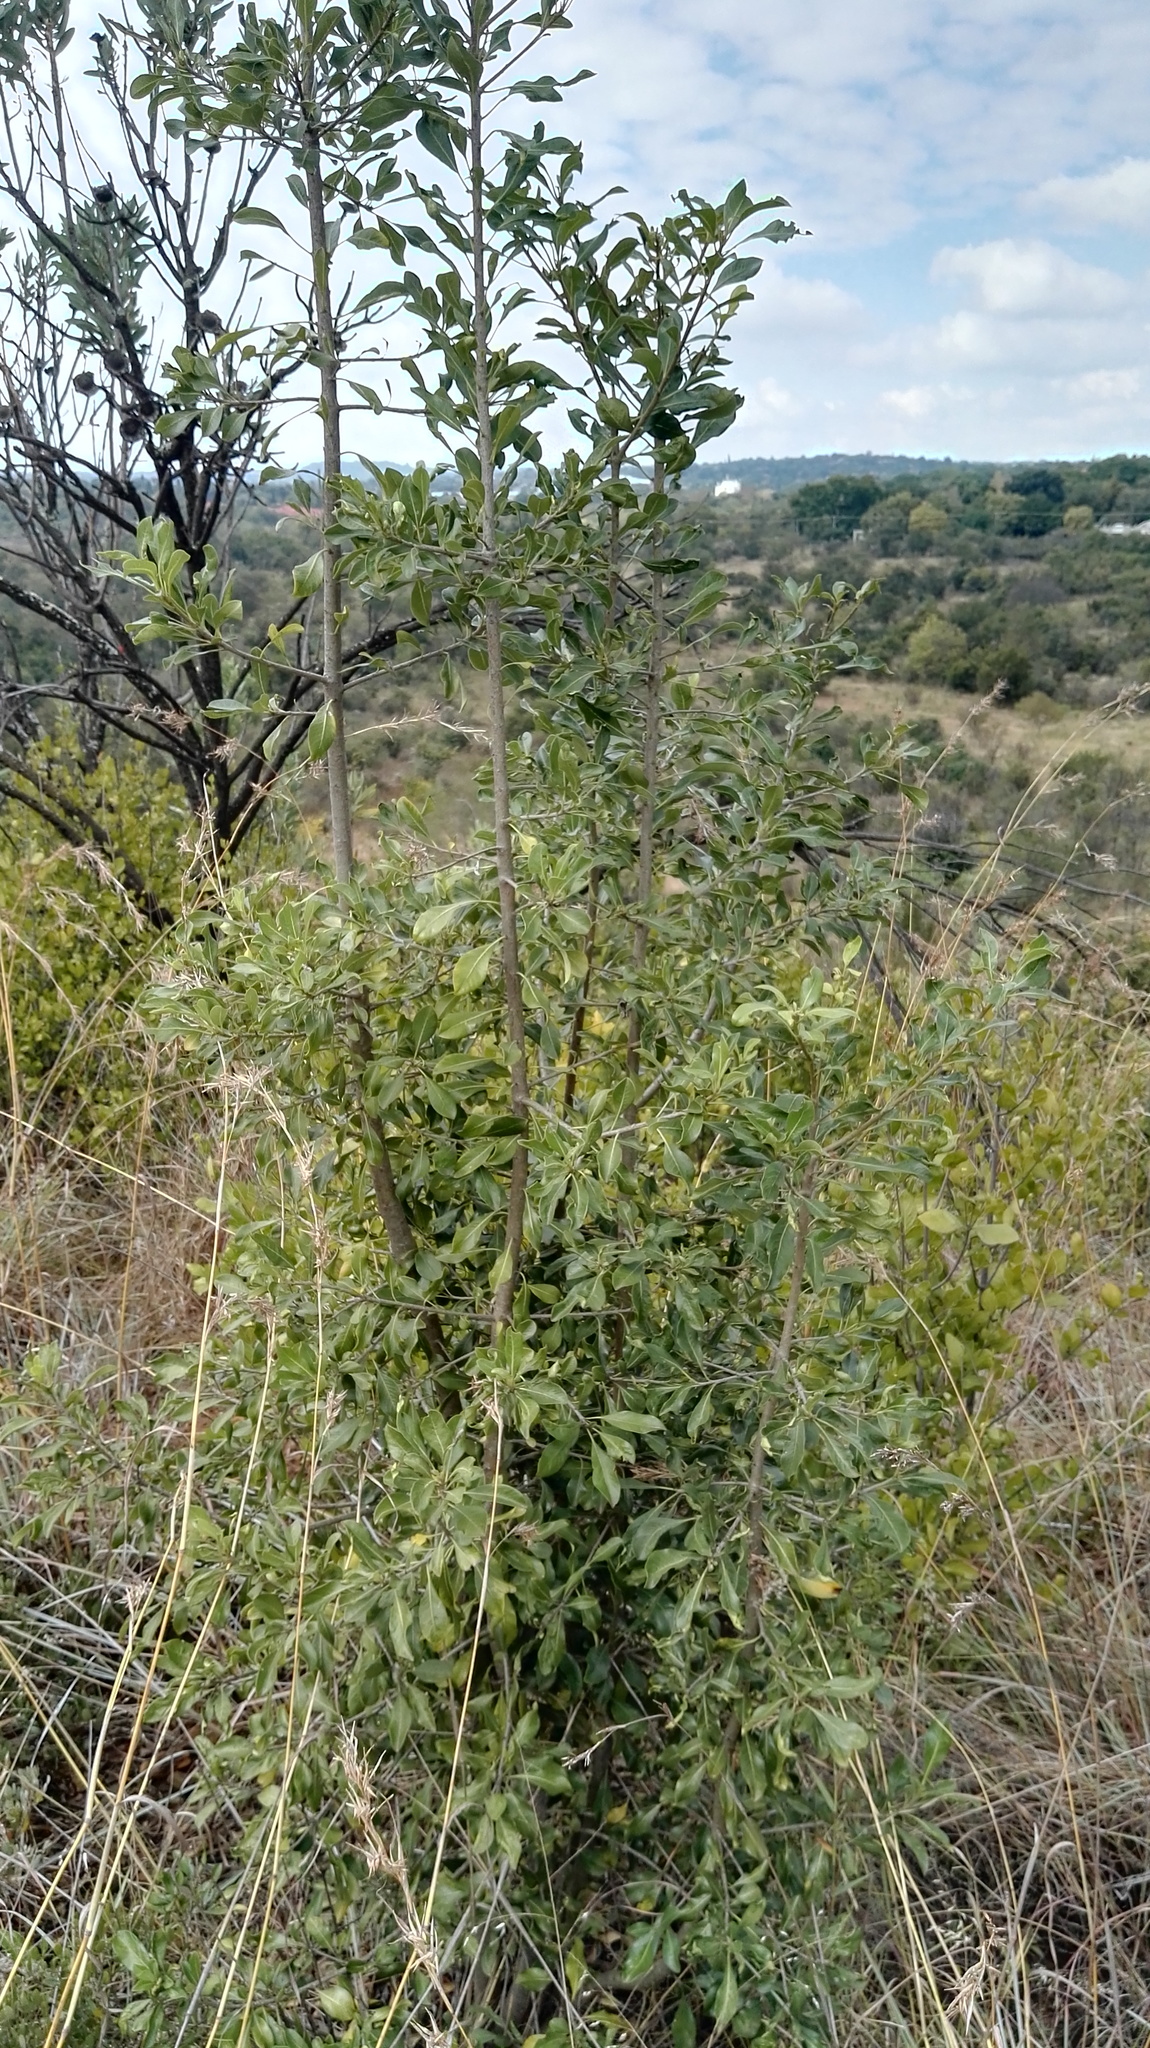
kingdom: Plantae
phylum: Tracheophyta
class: Magnoliopsida
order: Apiales
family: Pittosporaceae
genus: Pittosporum
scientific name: Pittosporum viridiflorum
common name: Cape cheesewood
